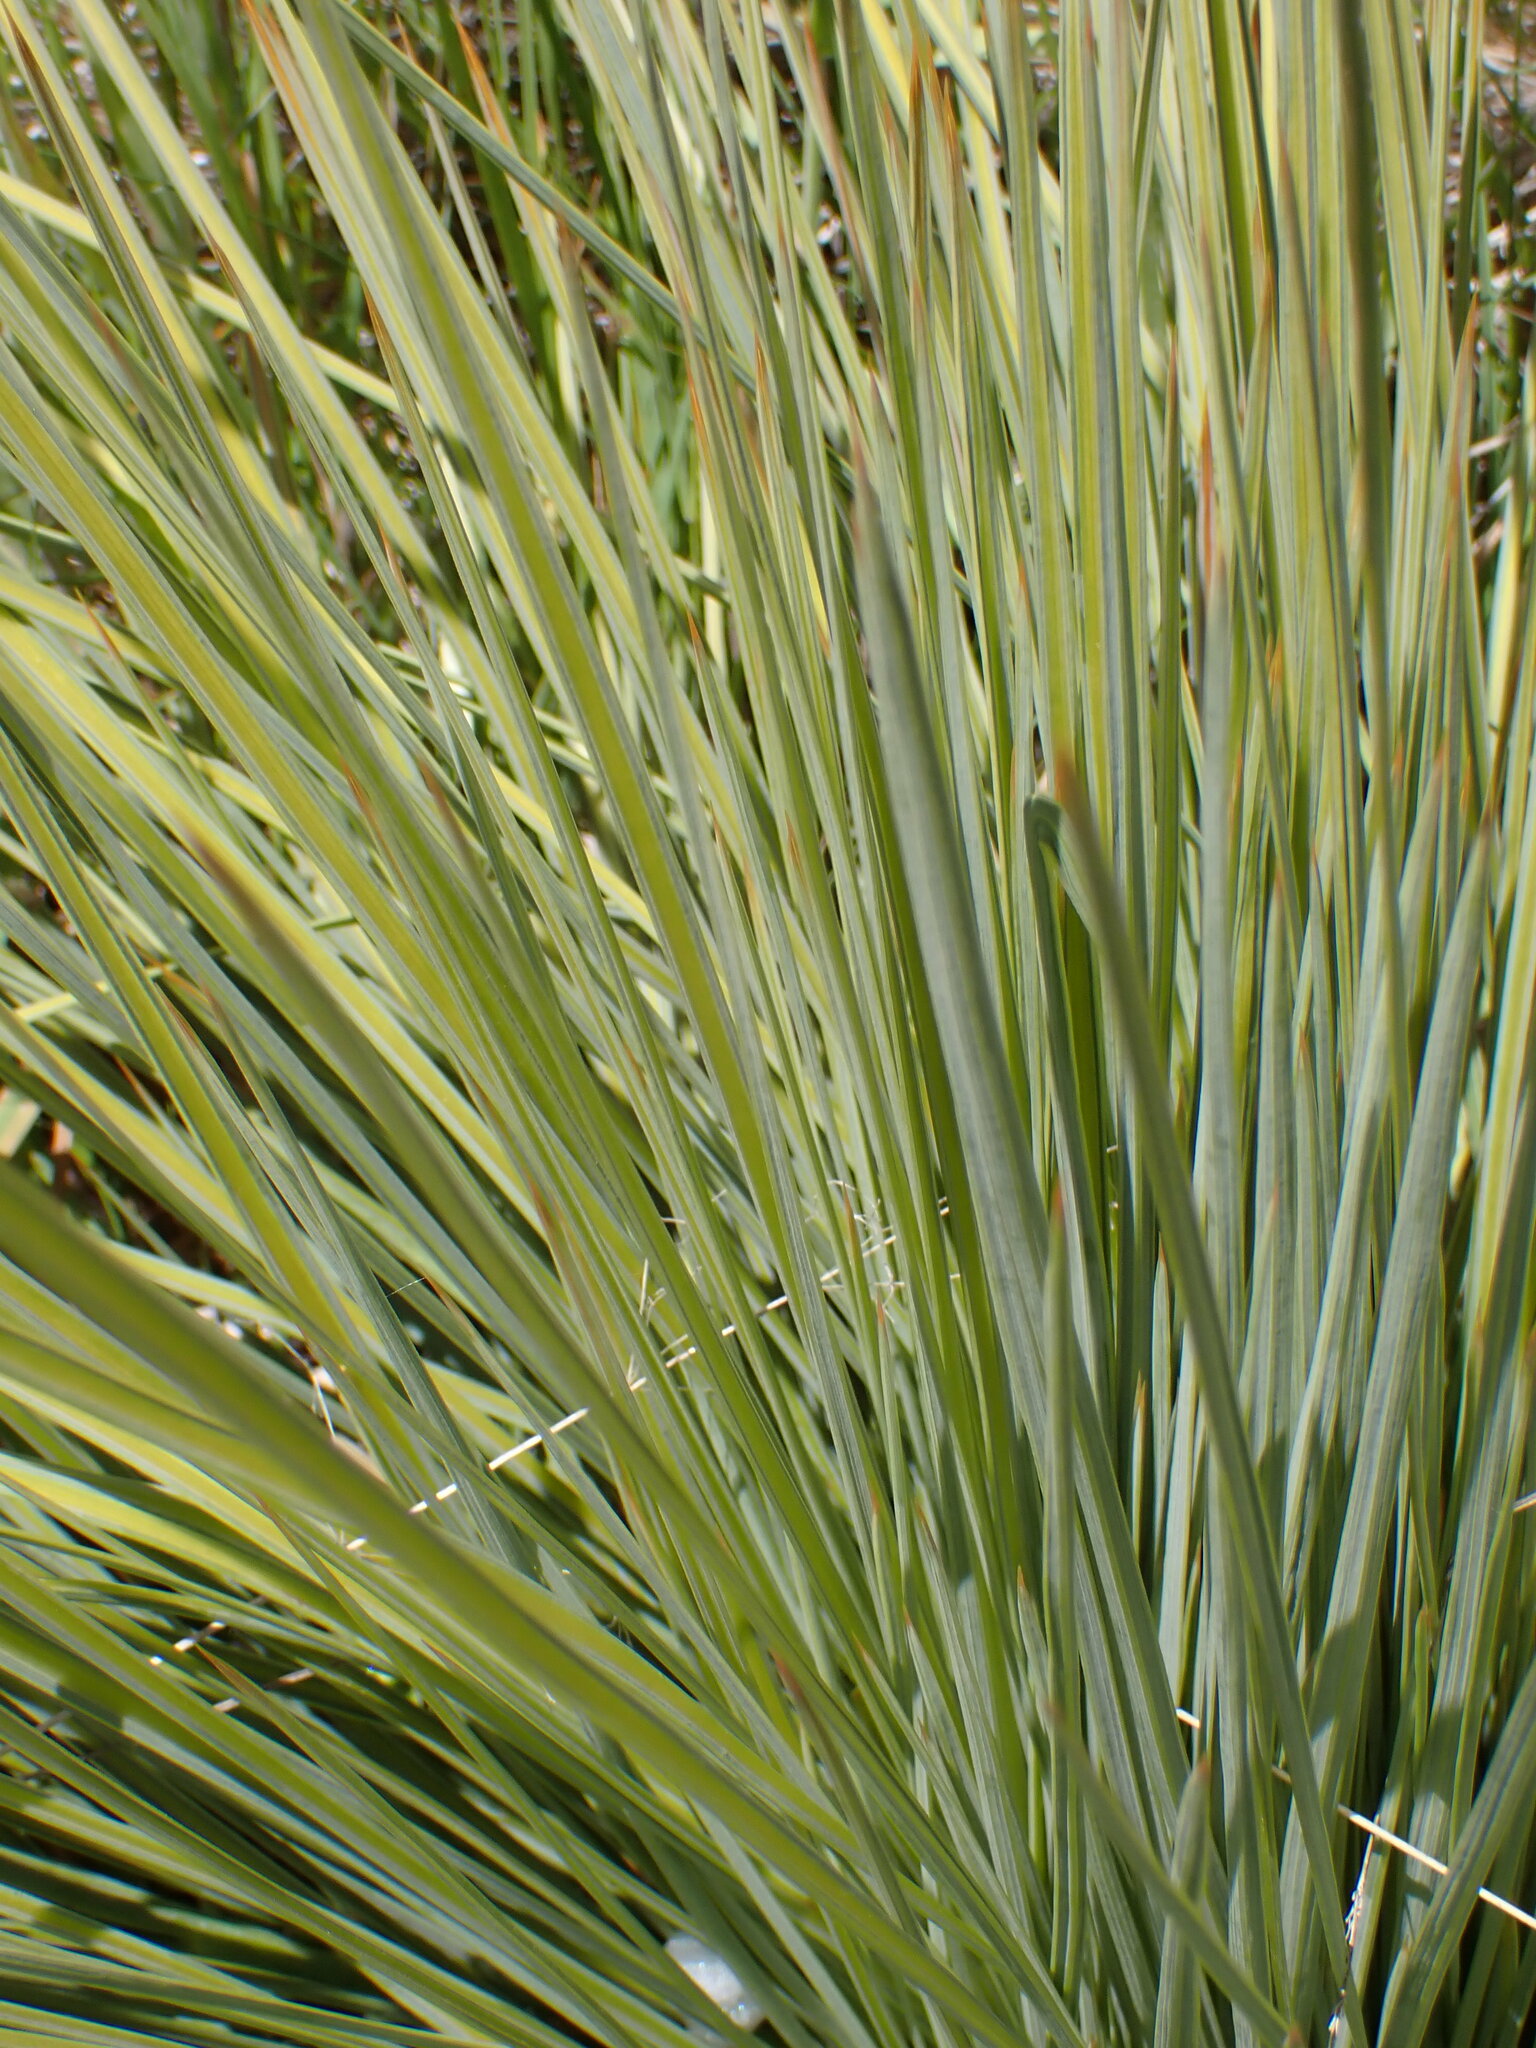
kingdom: Plantae
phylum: Tracheophyta
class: Magnoliopsida
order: Apiales
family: Apiaceae
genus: Aciphylla
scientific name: Aciphylla subflabellata
